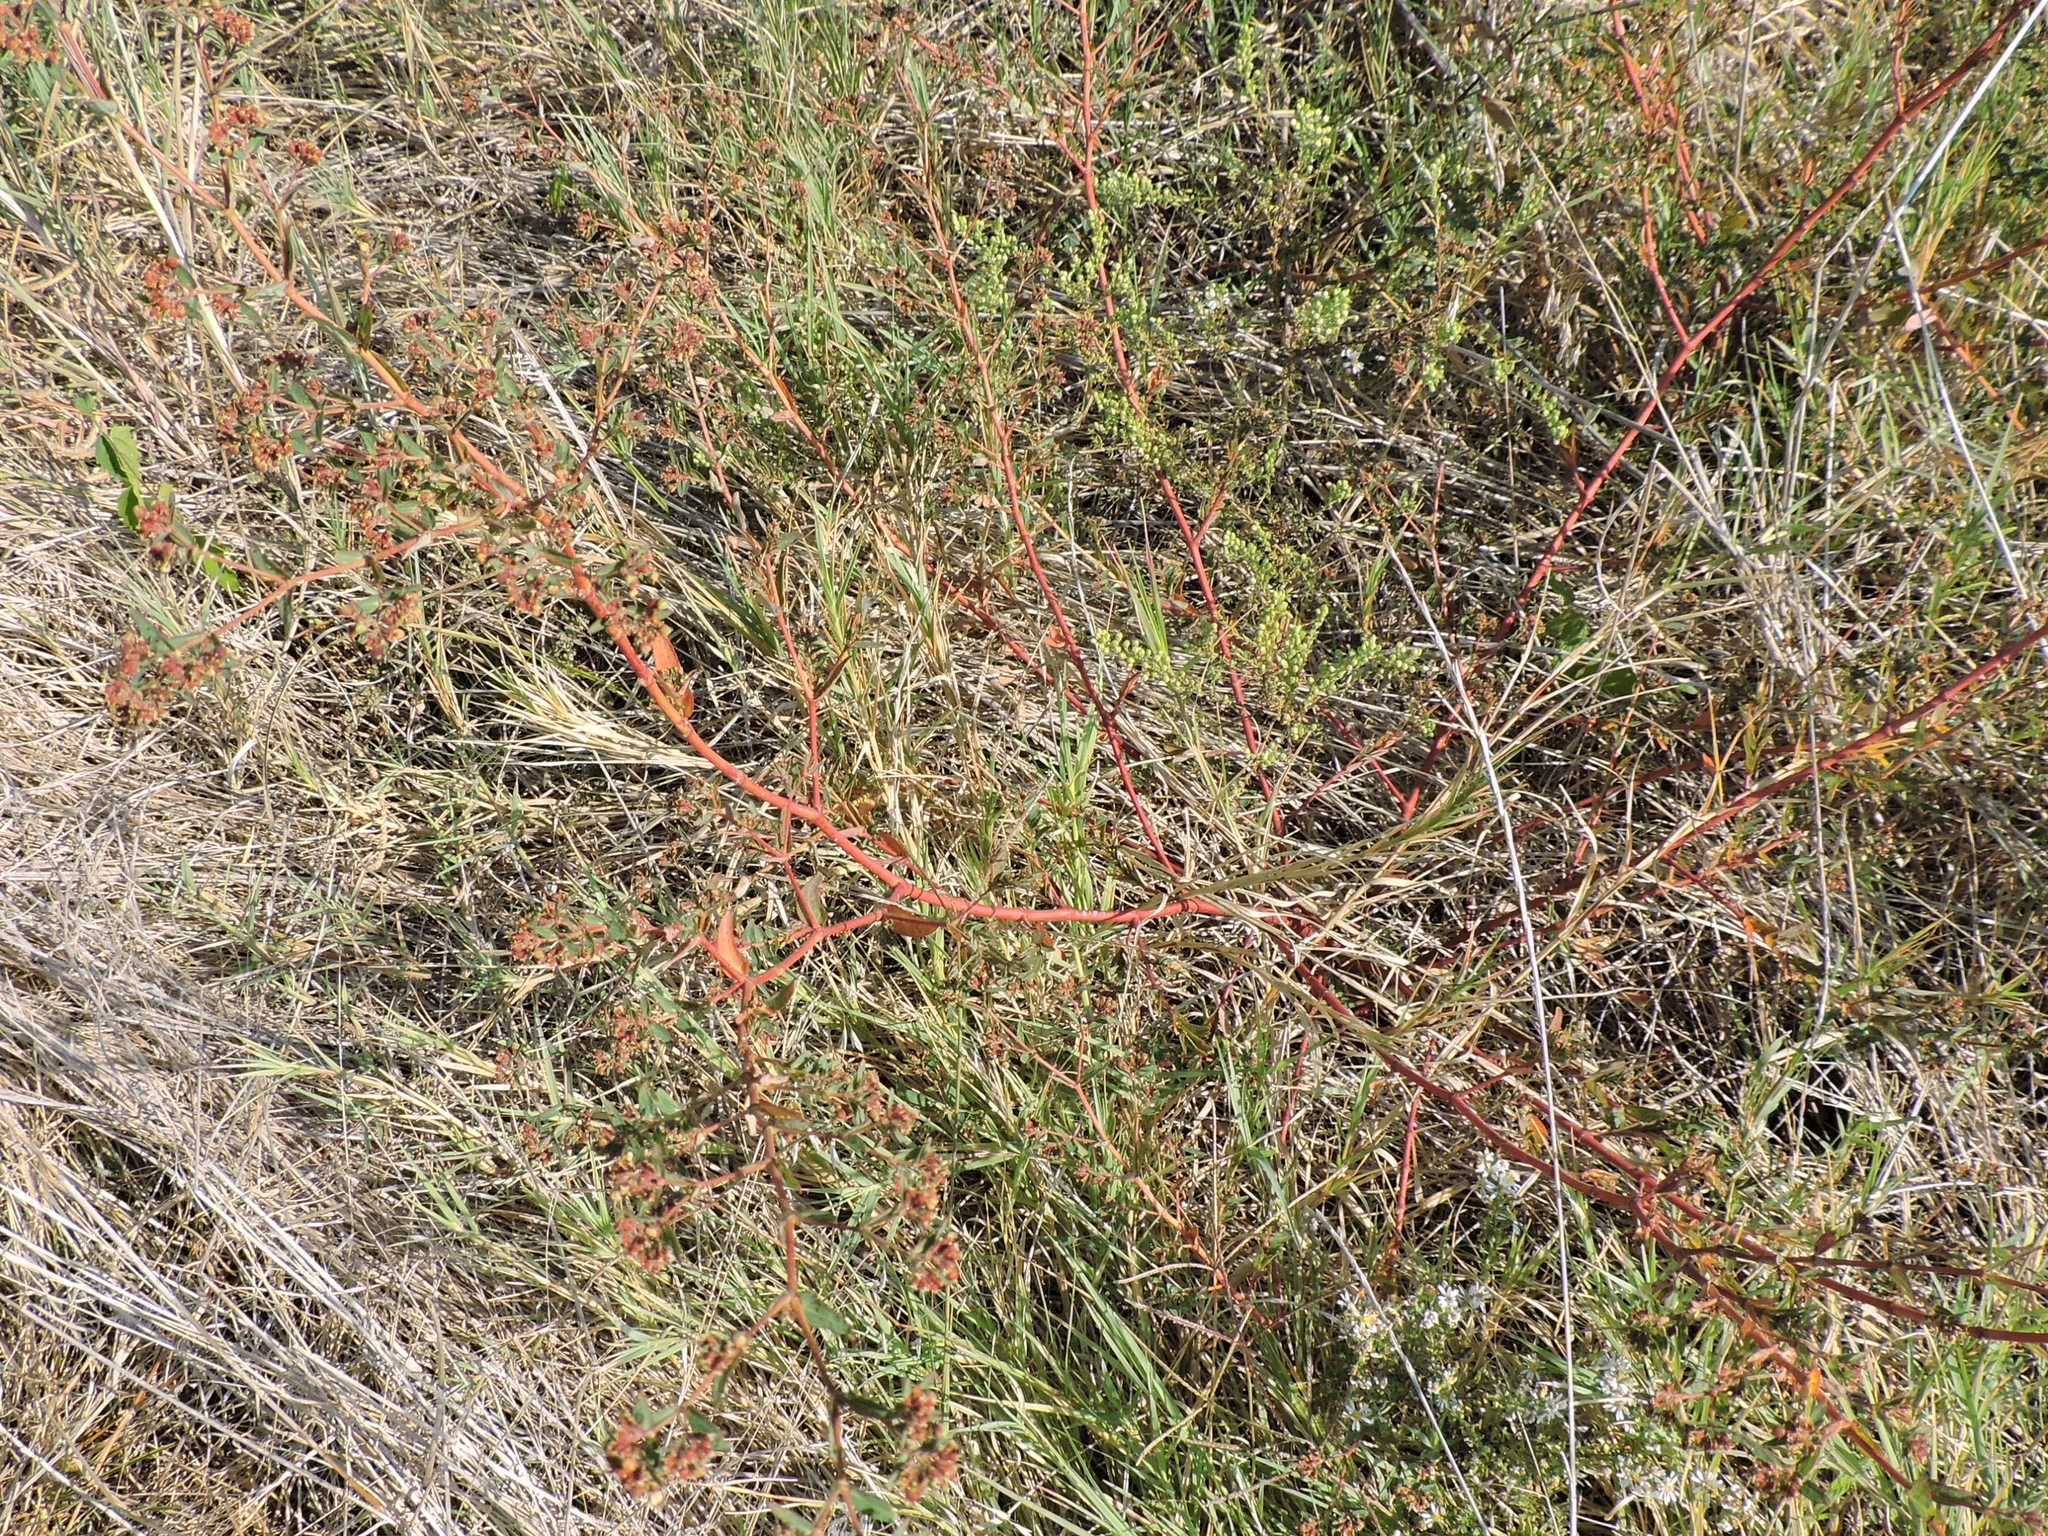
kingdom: Plantae
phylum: Tracheophyta
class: Magnoliopsida
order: Malpighiales
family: Euphorbiaceae
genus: Euphorbia
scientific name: Euphorbia nutans
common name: Eyebane
